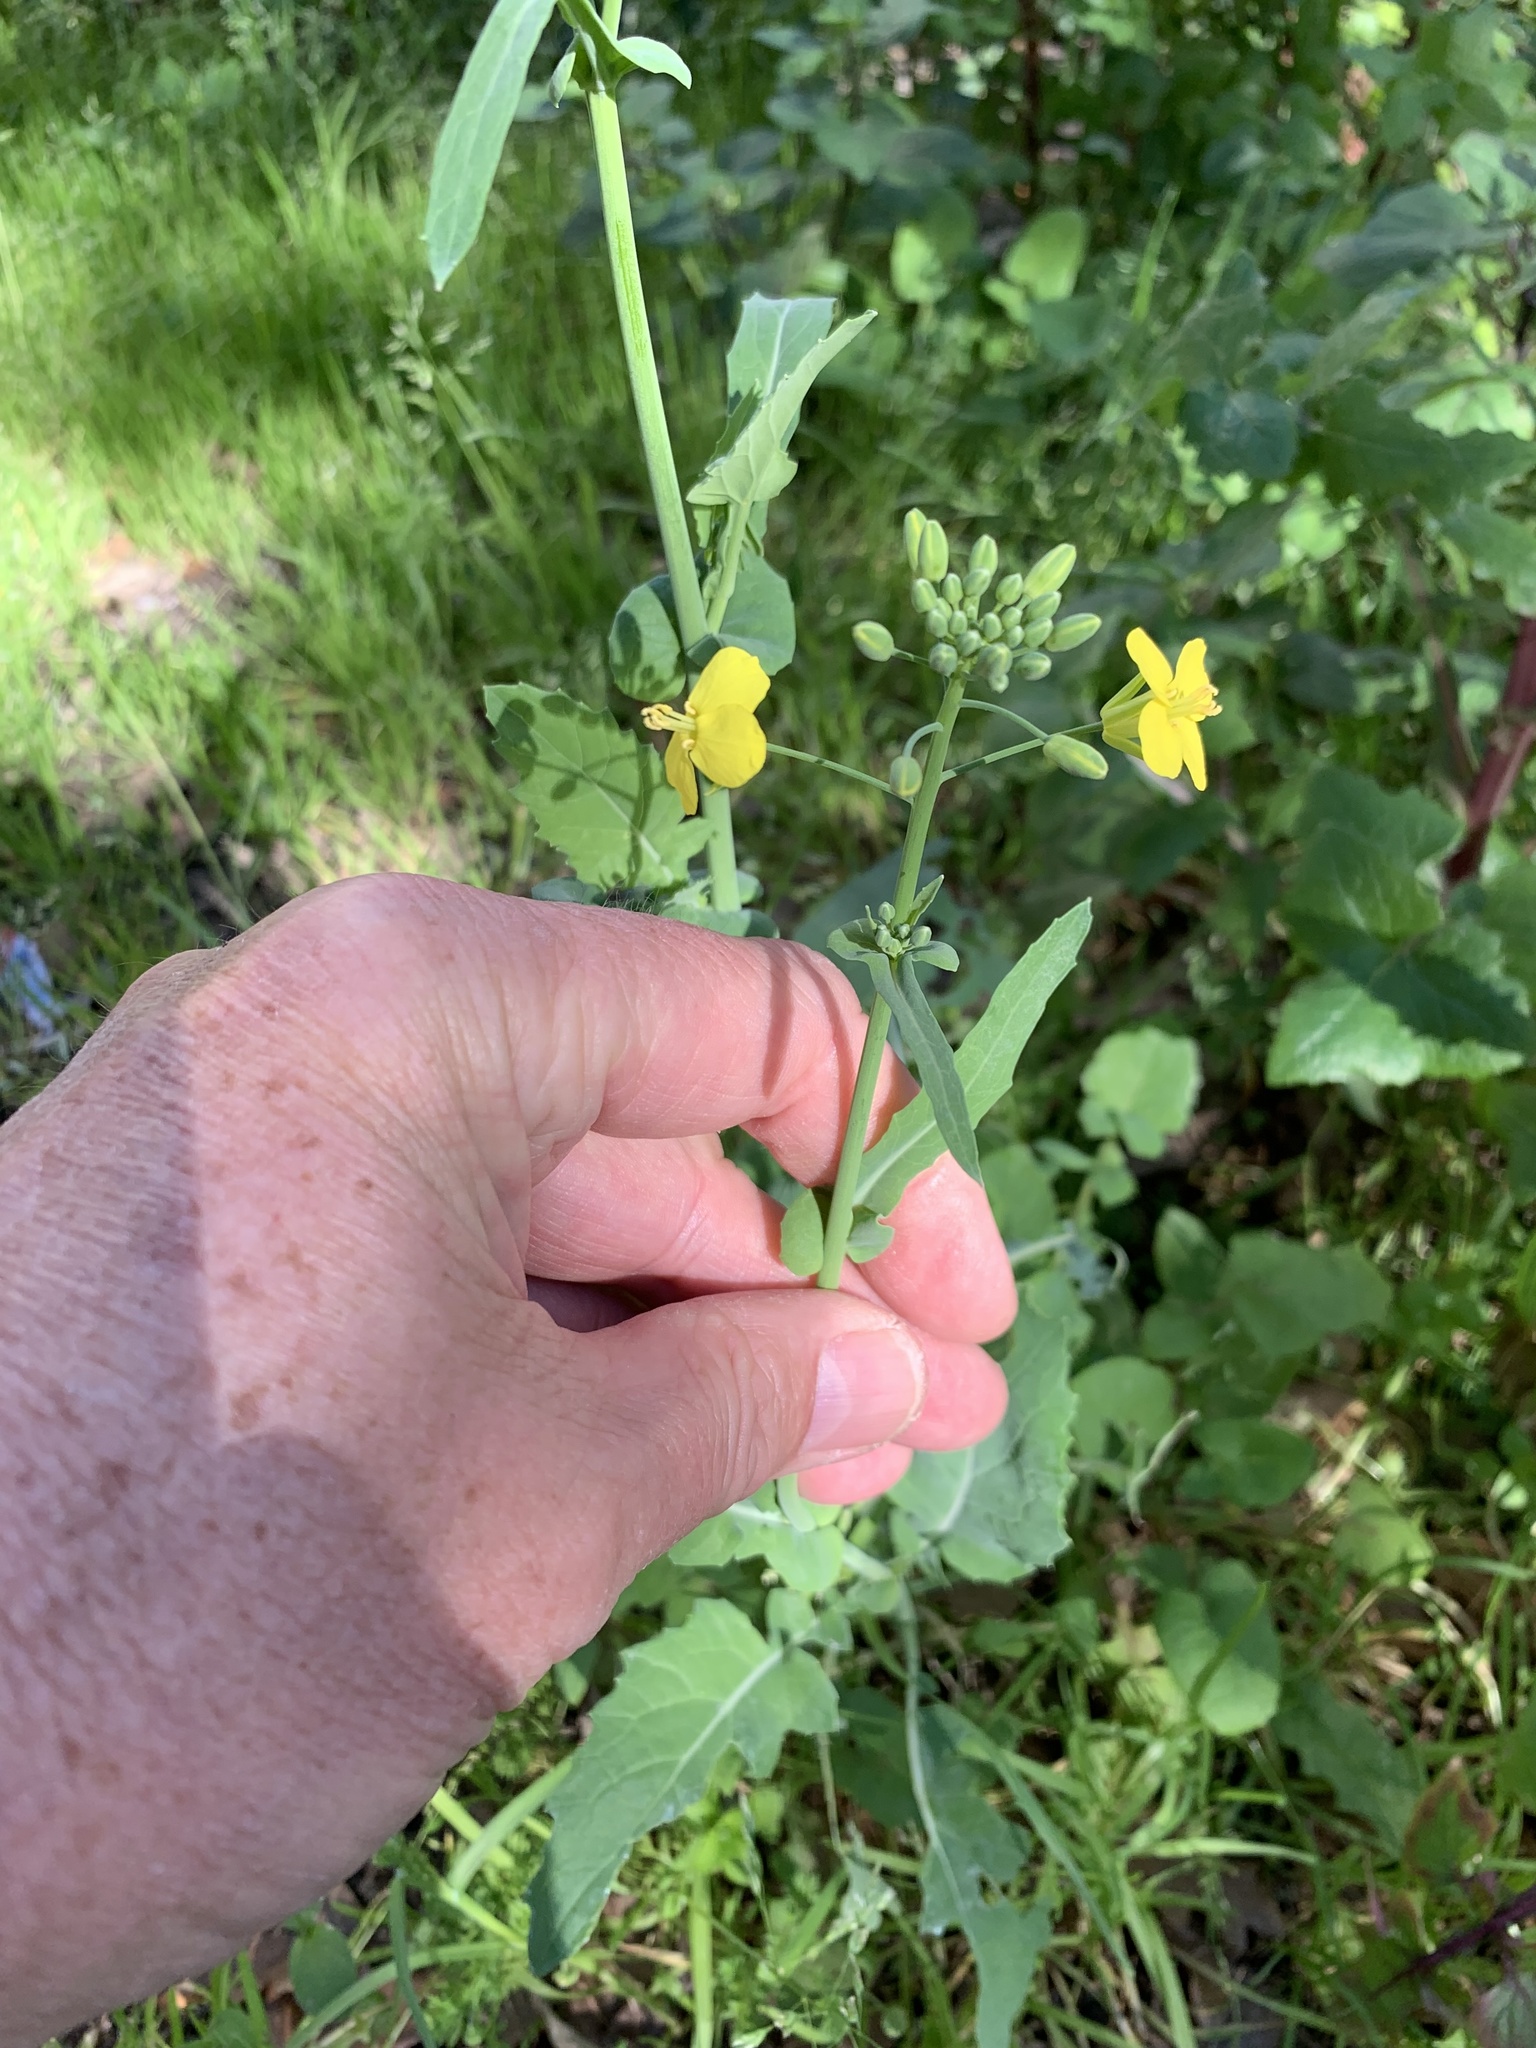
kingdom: Plantae
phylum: Tracheophyta
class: Magnoliopsida
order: Brassicales
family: Brassicaceae
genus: Brassica
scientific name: Brassica napus
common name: Rape
